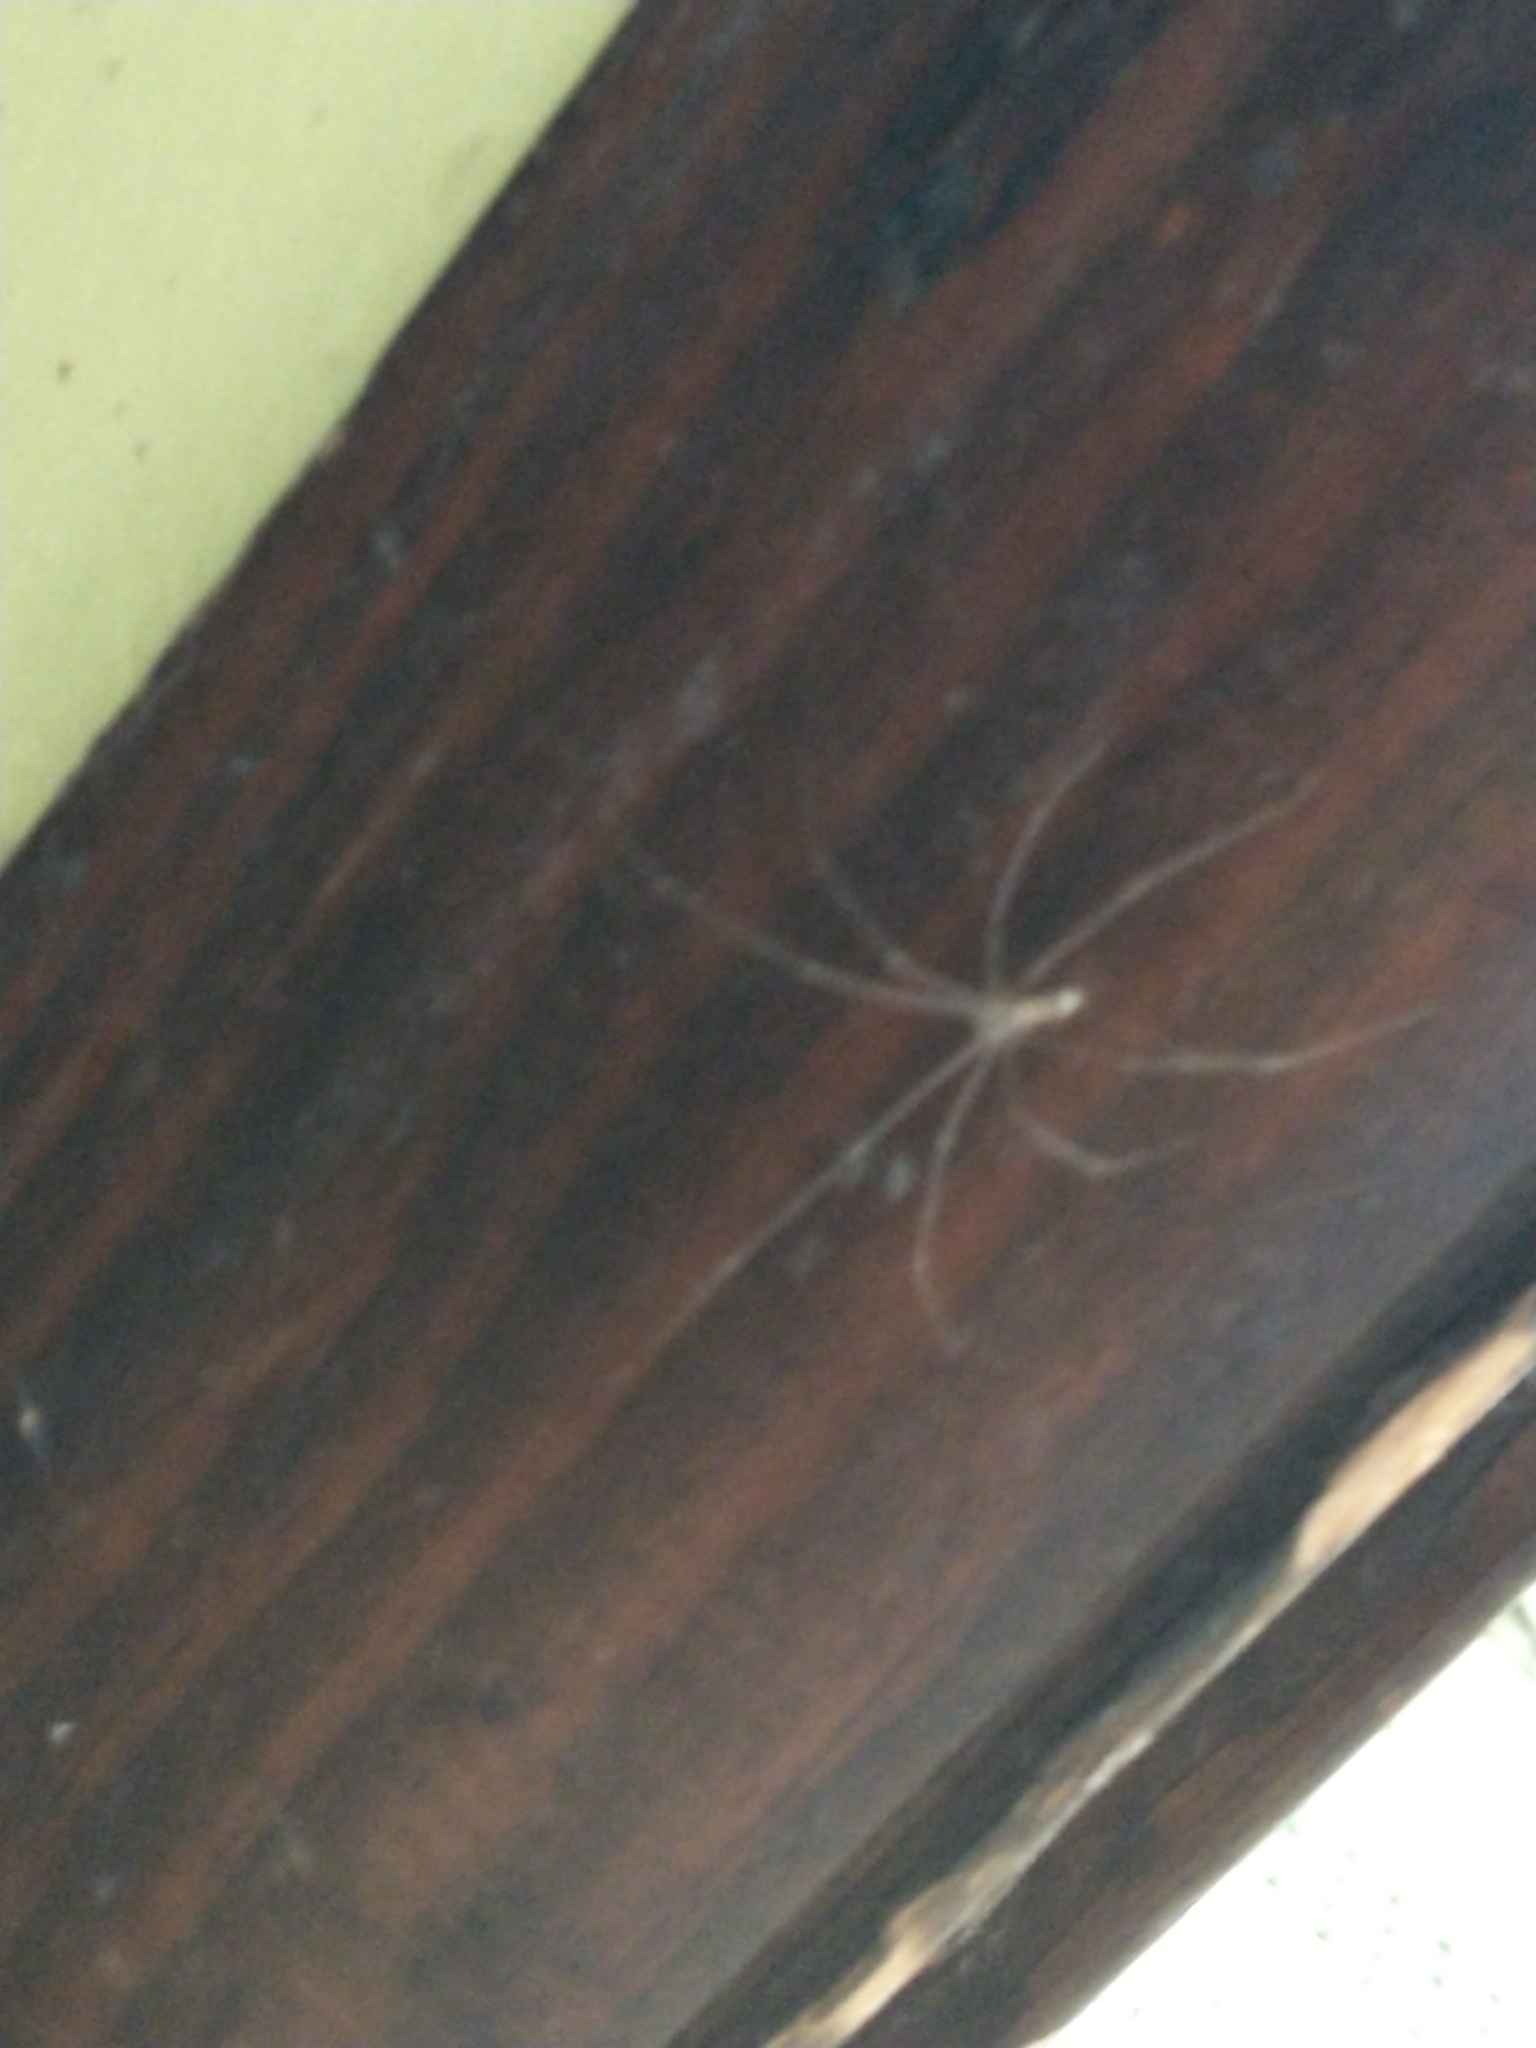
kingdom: Animalia
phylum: Arthropoda
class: Arachnida
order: Araneae
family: Pholcidae
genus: Pholcus
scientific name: Pholcus phalangioides
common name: Longbodied cellar spider
